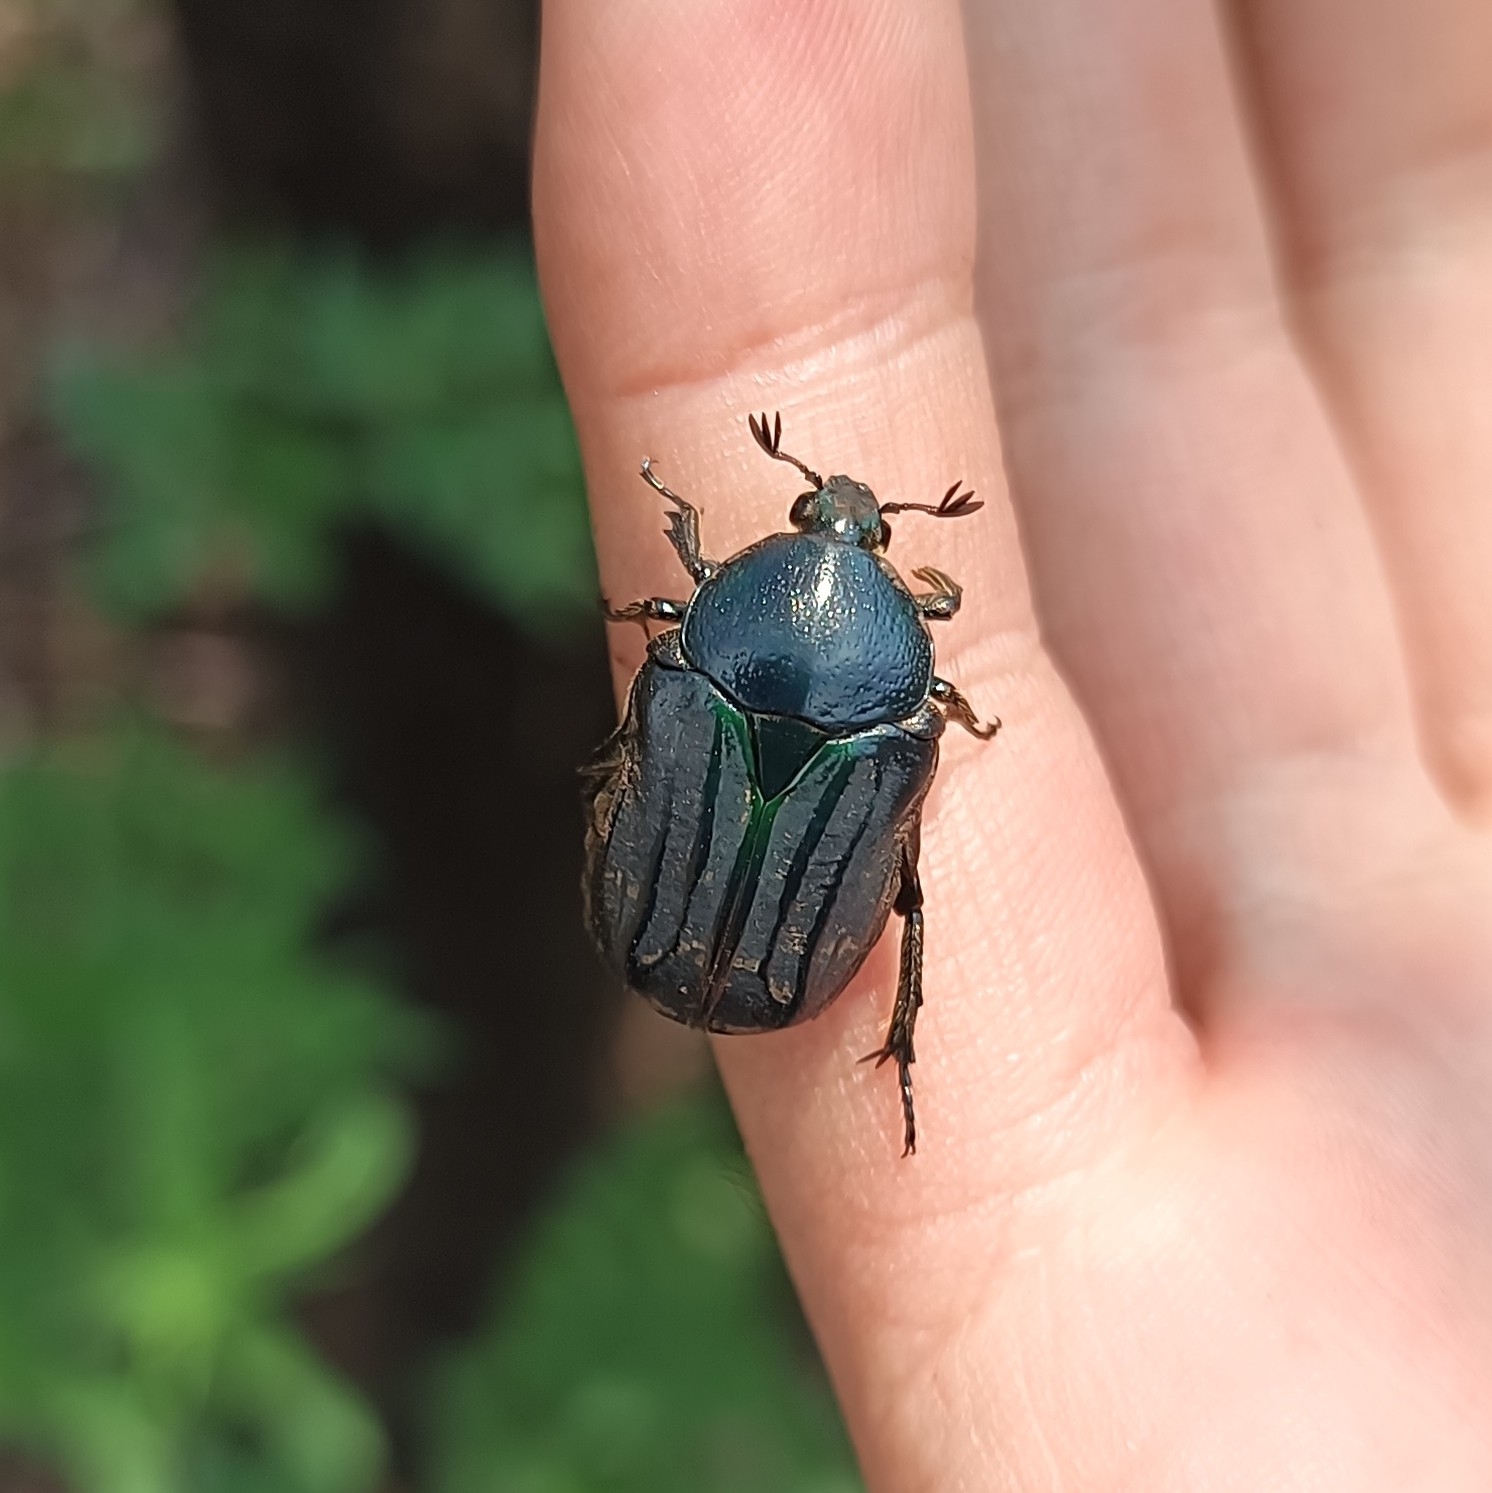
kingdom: Animalia
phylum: Arthropoda
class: Insecta
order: Coleoptera
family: Scarabaeidae
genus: Euphoria
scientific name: Euphoria monticola
